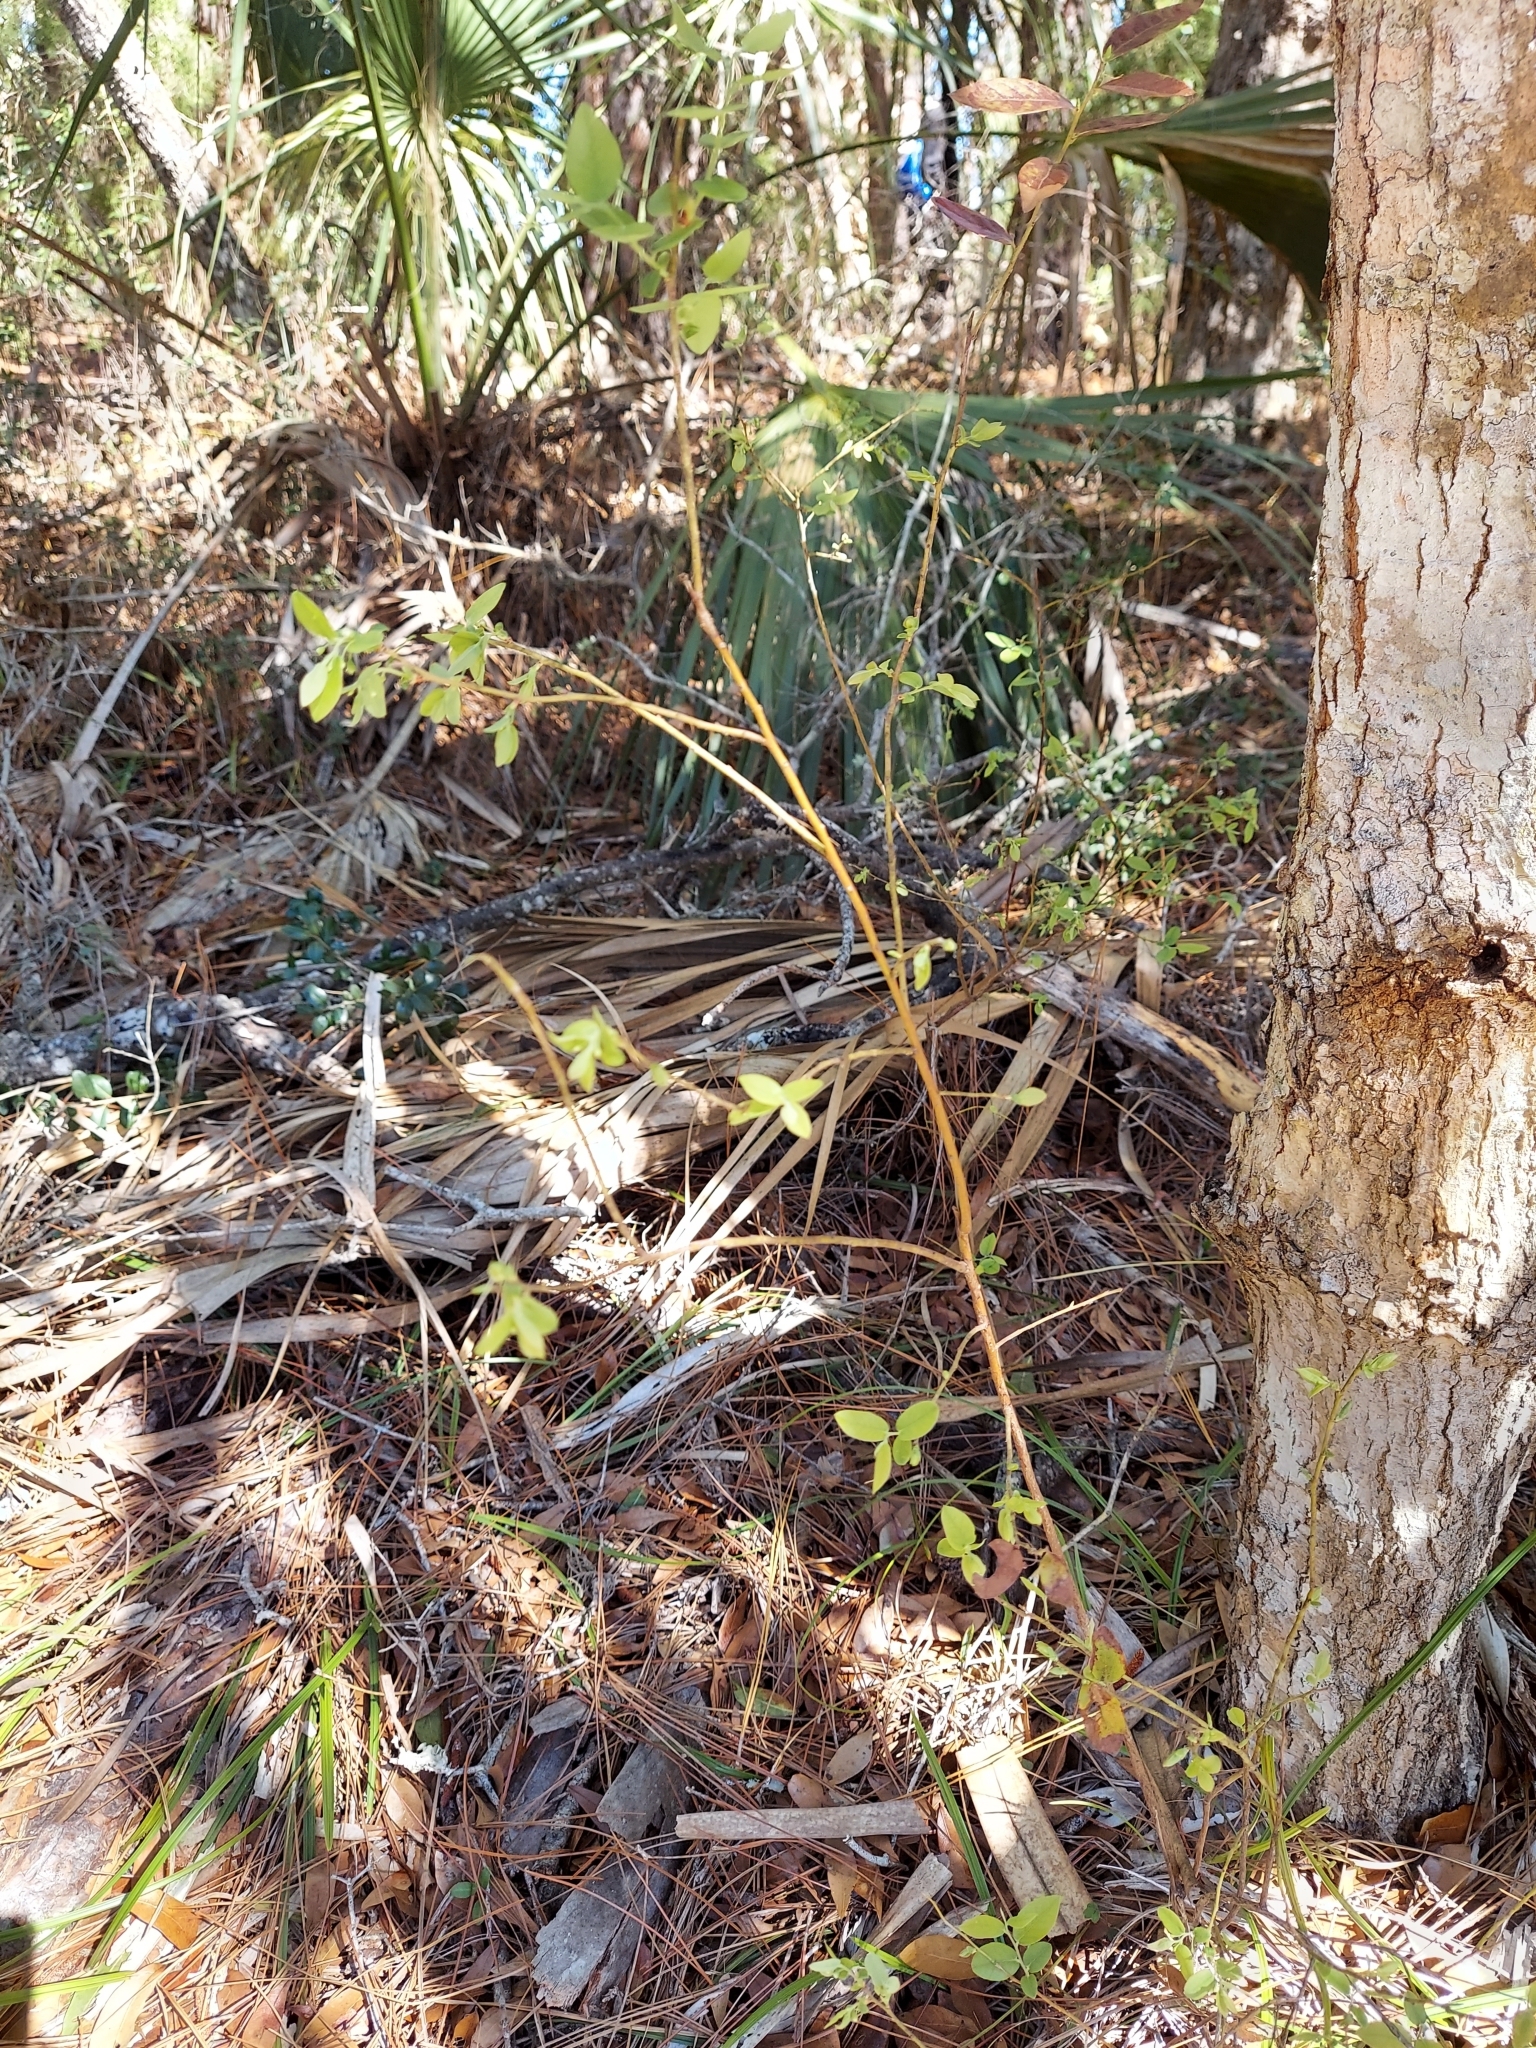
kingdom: Plantae
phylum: Tracheophyta
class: Magnoliopsida
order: Ericales
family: Ericaceae
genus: Vaccinium
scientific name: Vaccinium stamineum
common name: Deerberry
